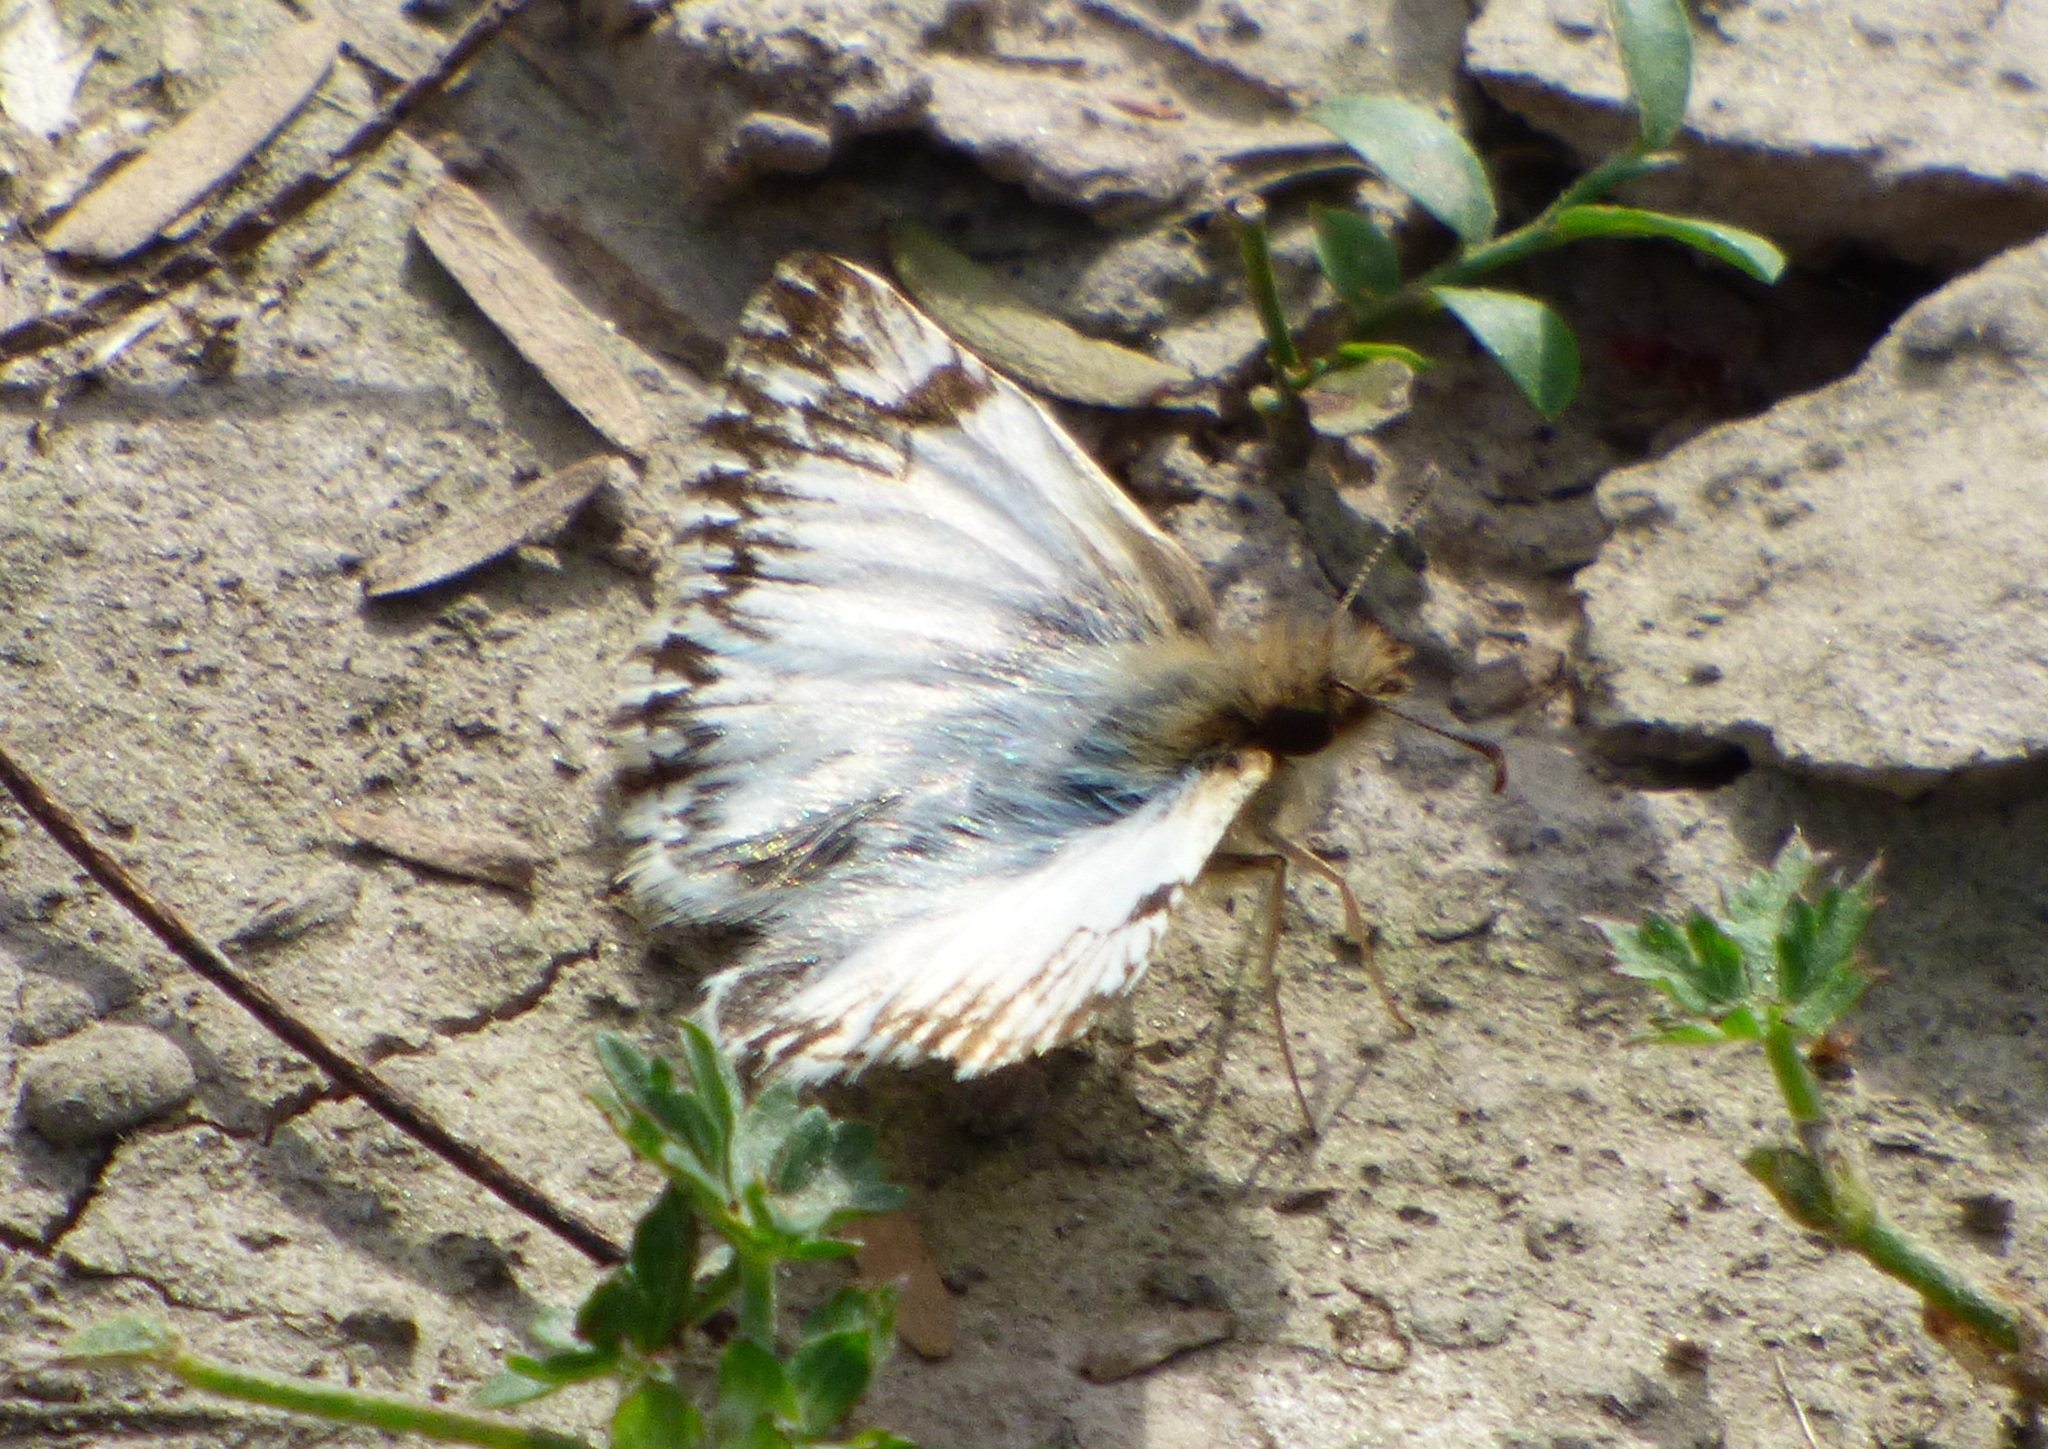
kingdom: Animalia
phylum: Arthropoda
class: Insecta
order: Lepidoptera
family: Hesperiidae
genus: Heliopetes
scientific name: Heliopetes omrina
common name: Stained white-skipper
